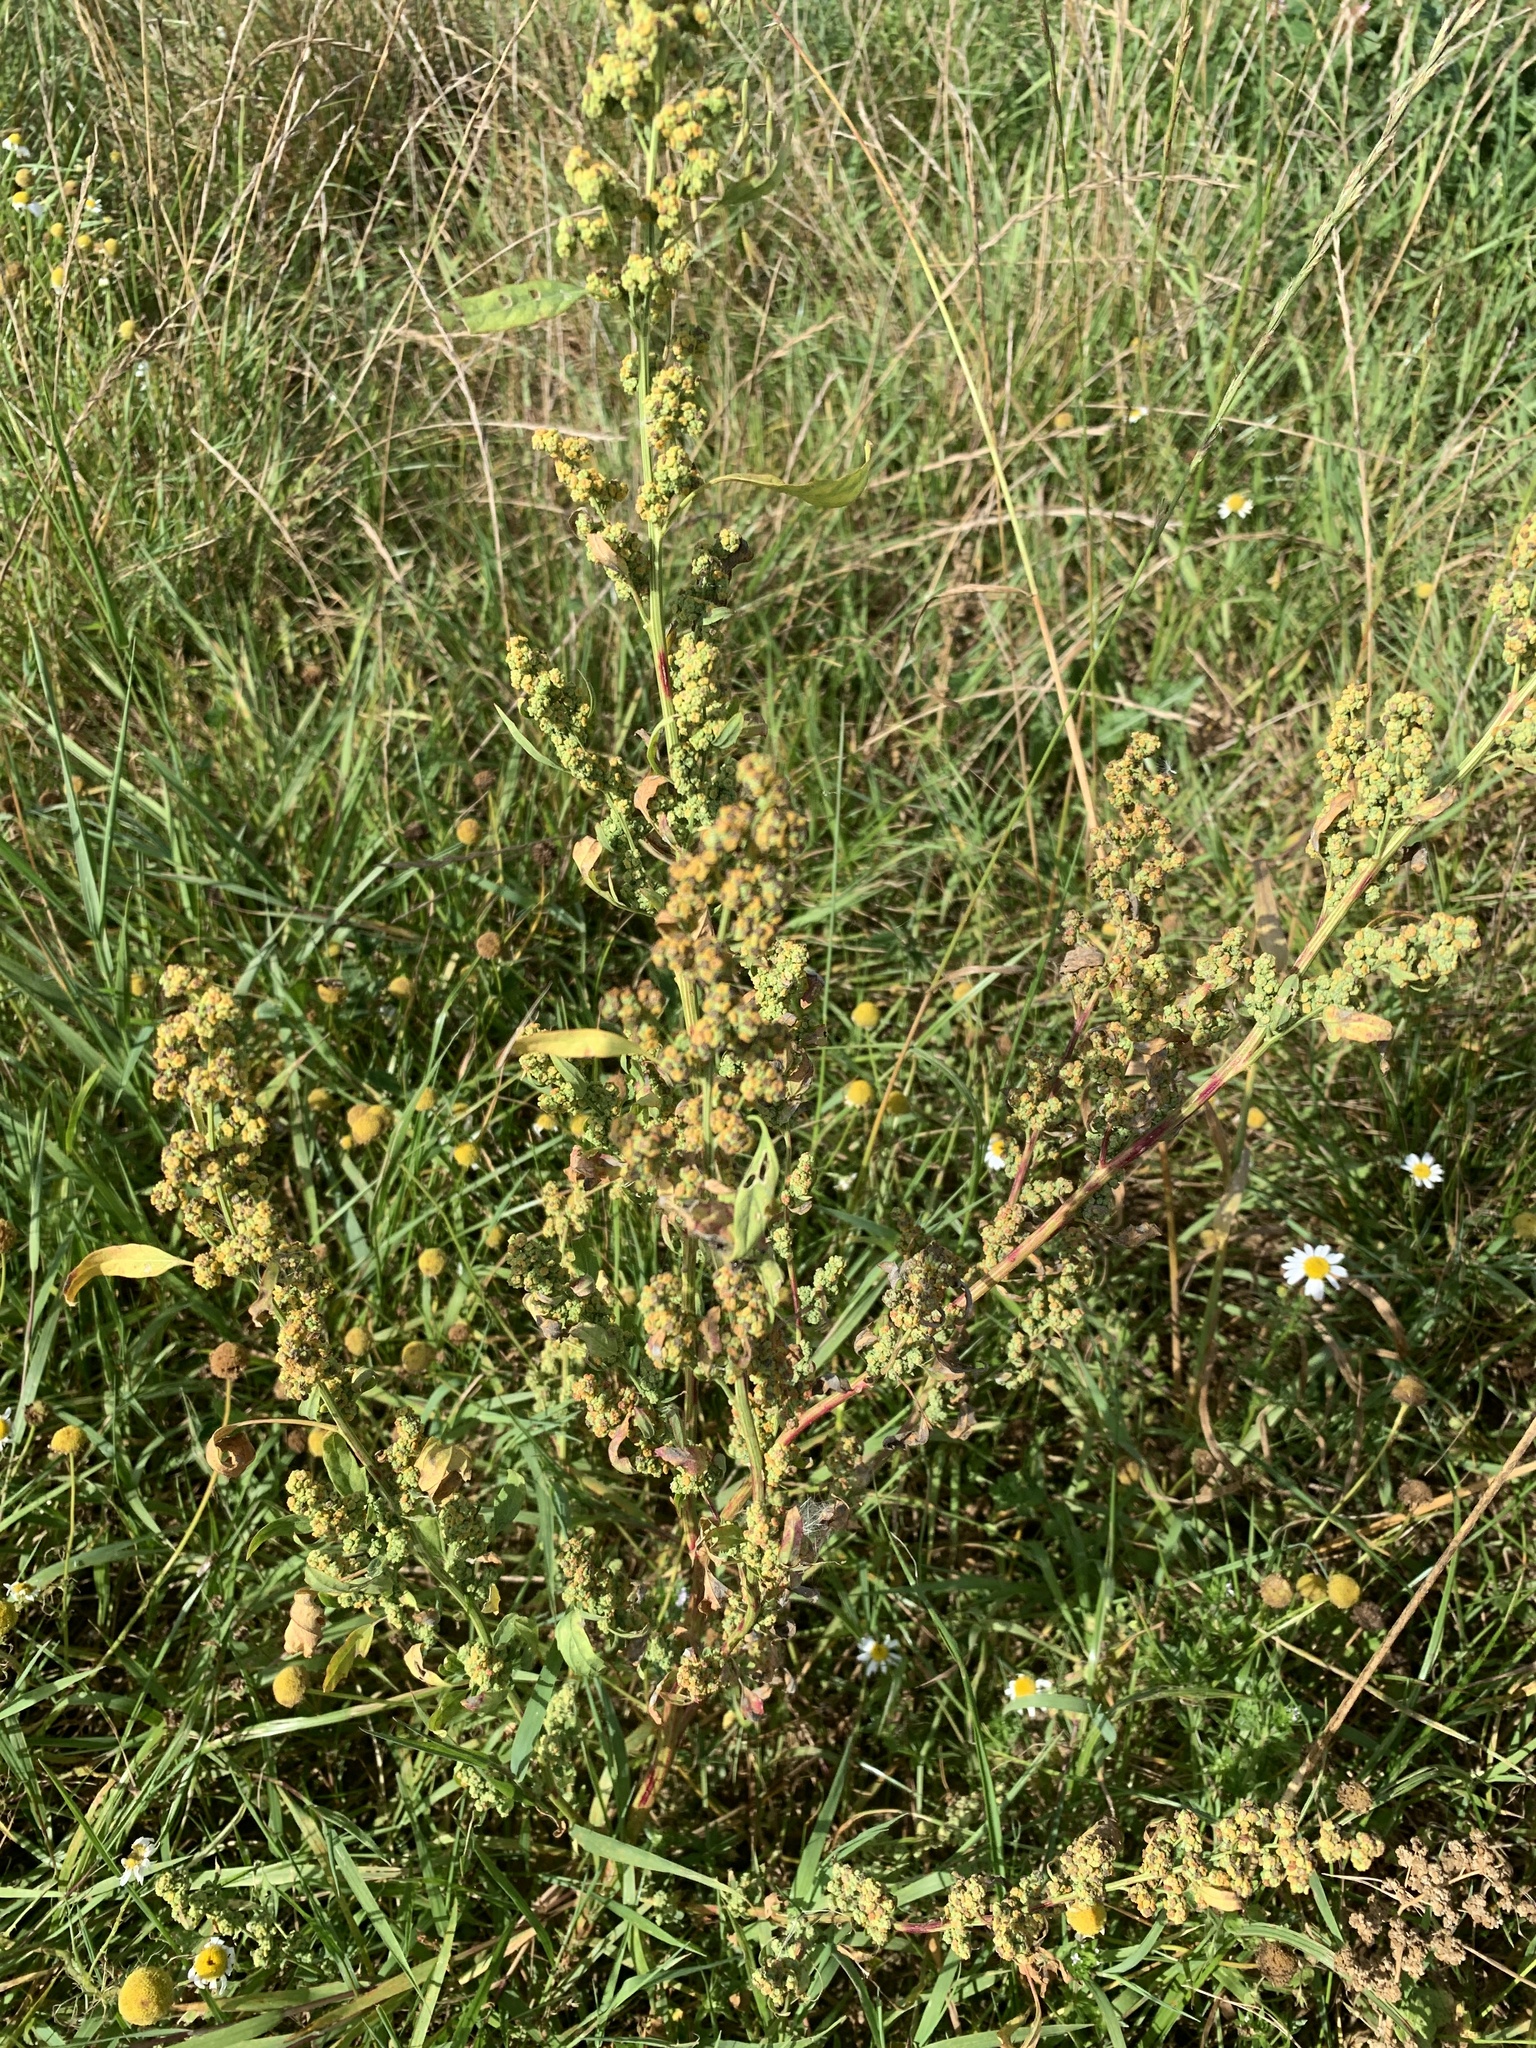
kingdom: Plantae
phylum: Tracheophyta
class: Magnoliopsida
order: Caryophyllales
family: Amaranthaceae
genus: Chenopodium
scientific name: Chenopodium album
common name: Fat-hen
